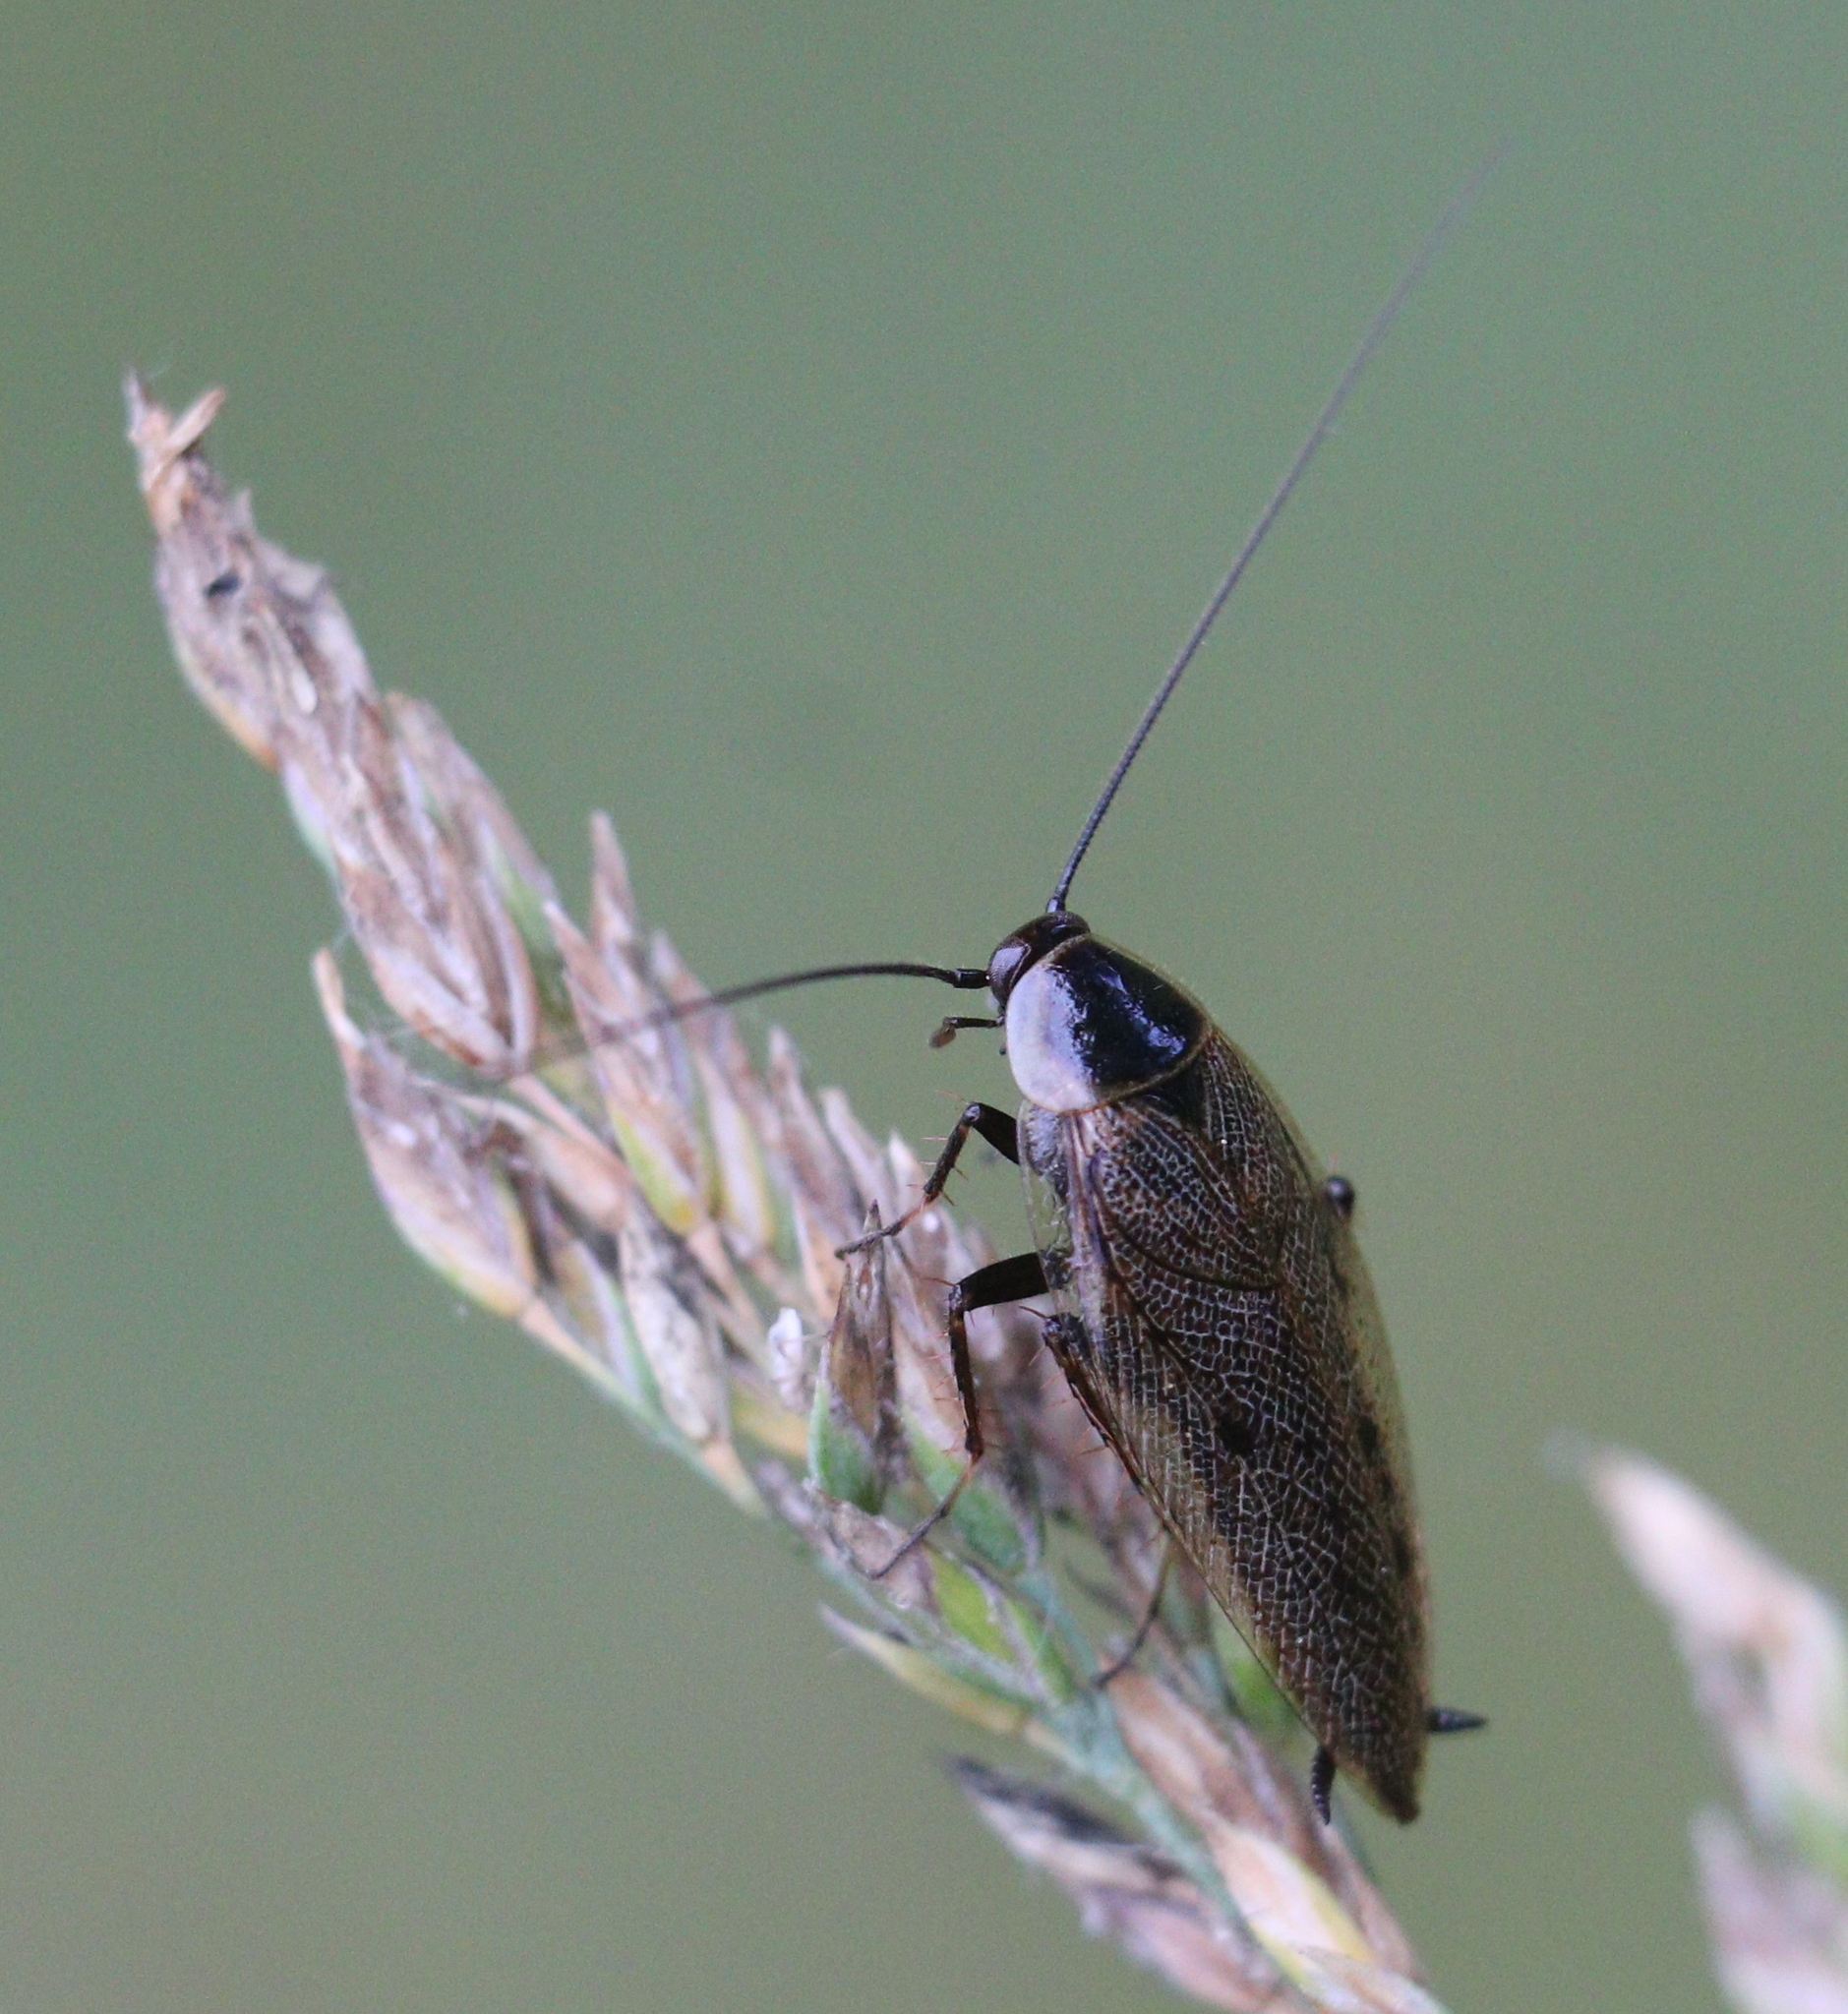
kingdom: Animalia
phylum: Arthropoda
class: Insecta
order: Blattodea
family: Ectobiidae
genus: Ectobius
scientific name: Ectobius lapponicus
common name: Dusky cockroach
